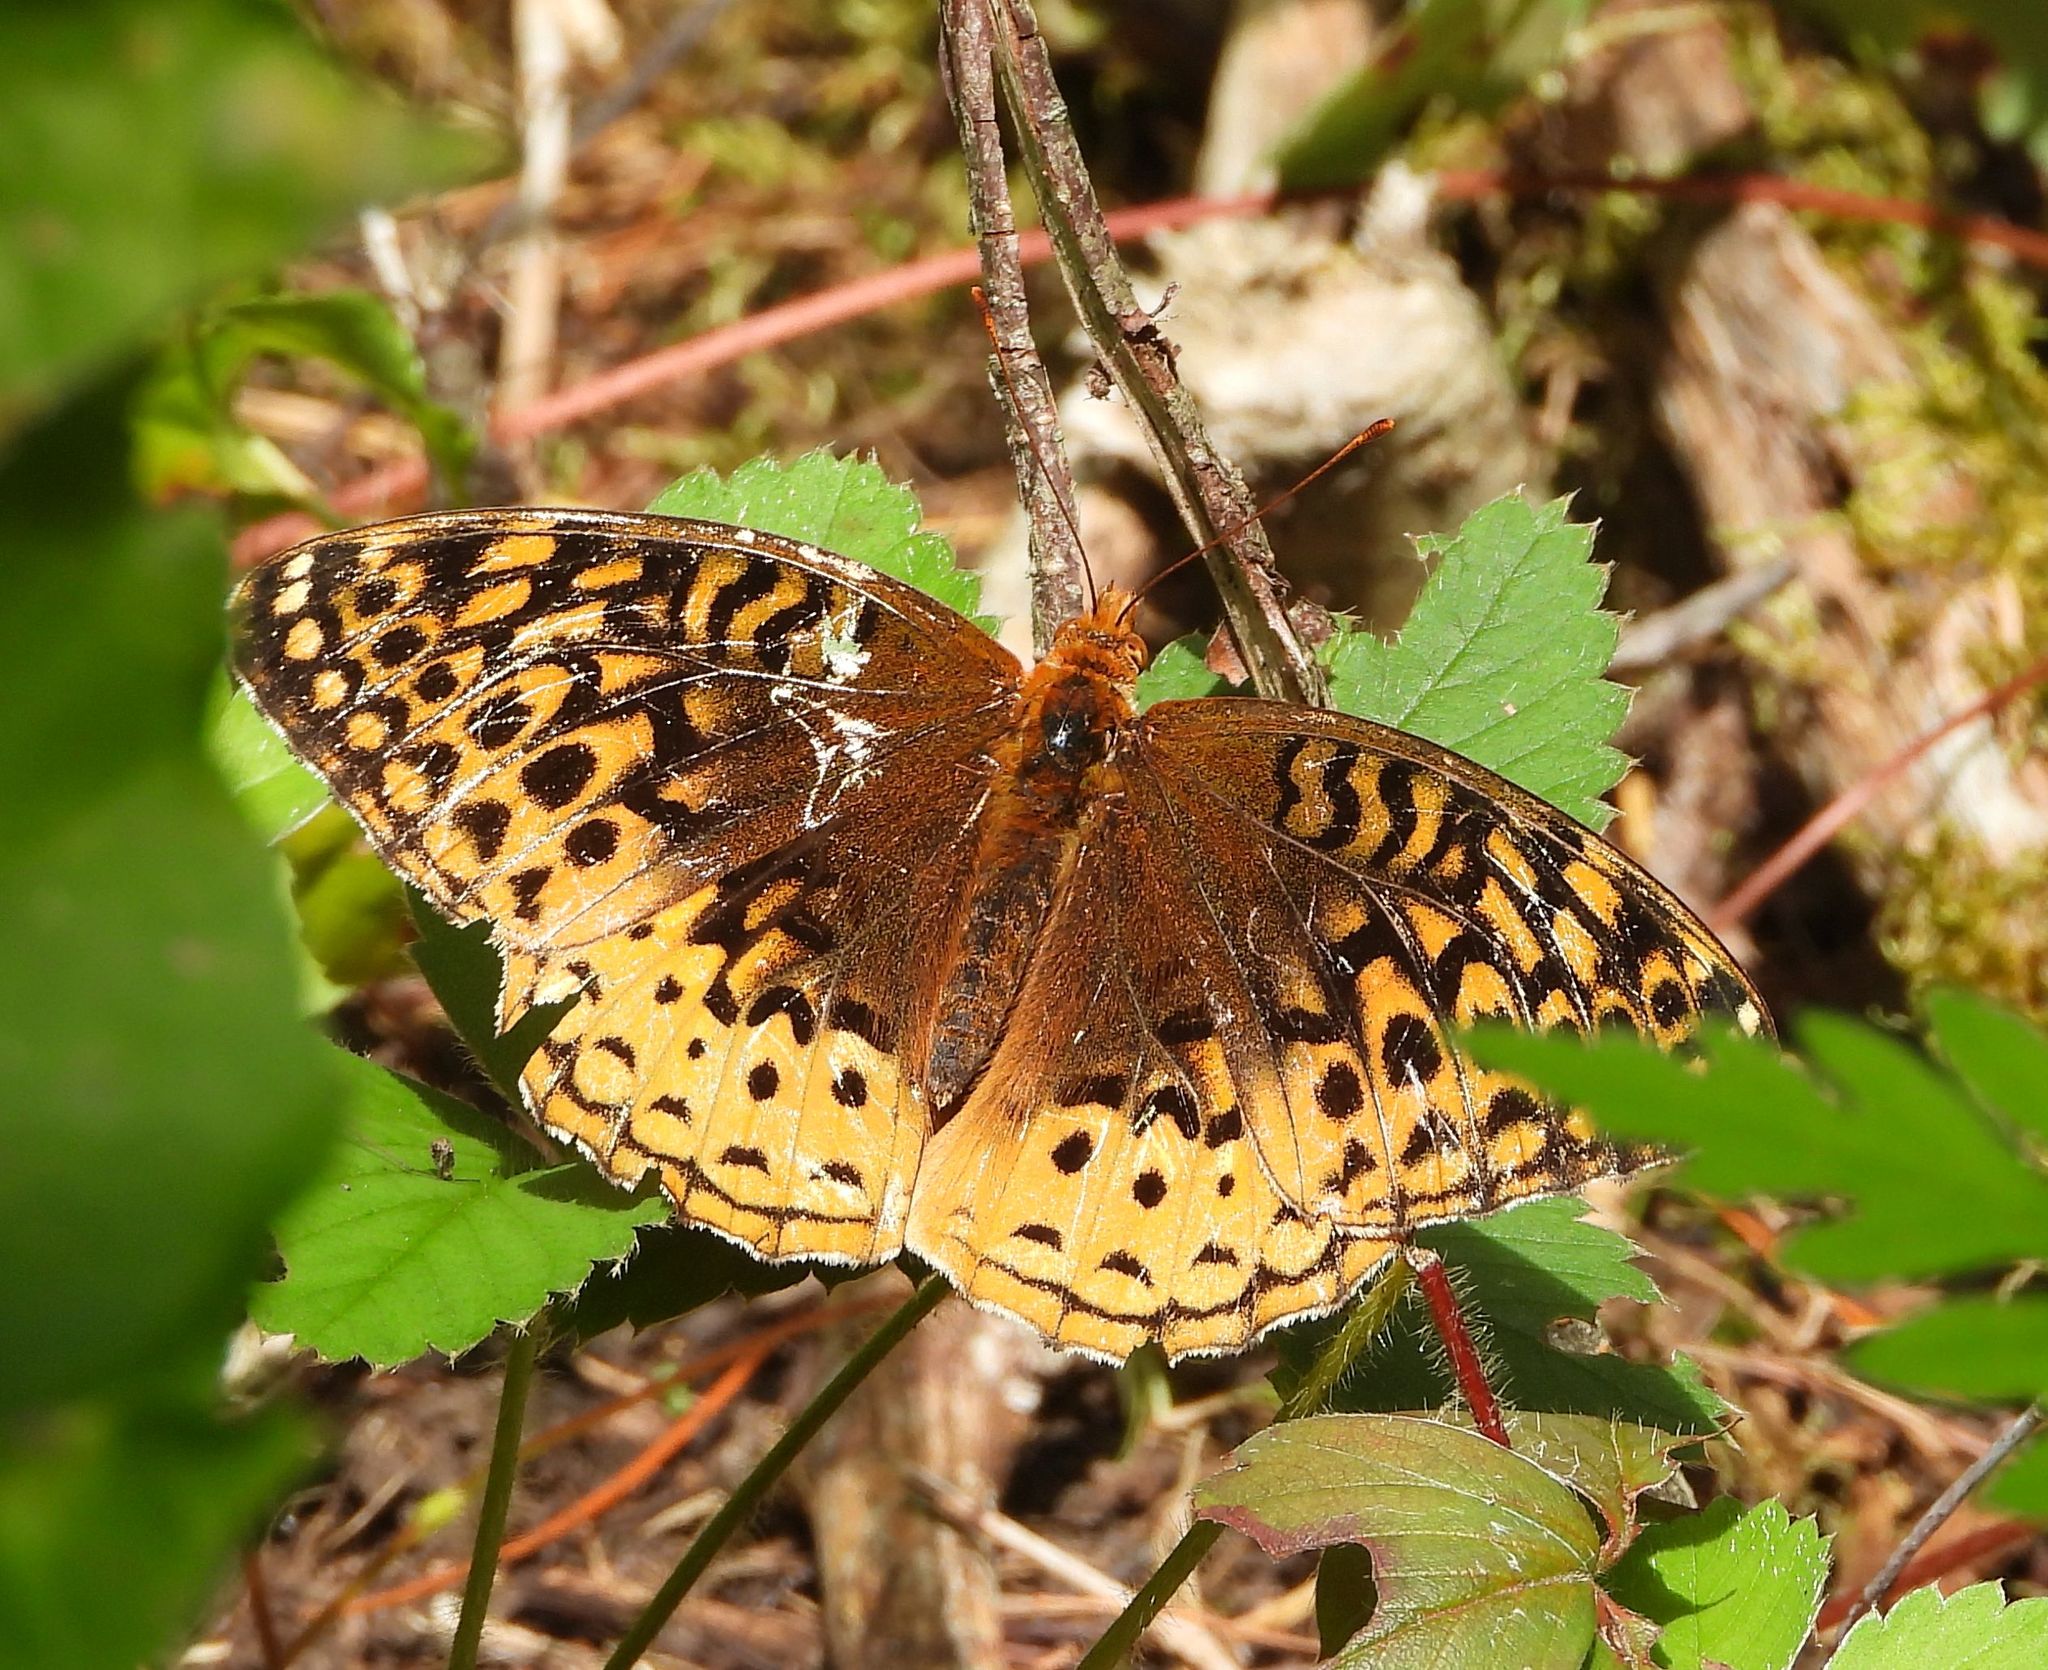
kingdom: Animalia
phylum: Arthropoda
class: Insecta
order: Lepidoptera
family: Nymphalidae
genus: Speyeria
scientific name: Speyeria cybele
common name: Great spangled fritillary
